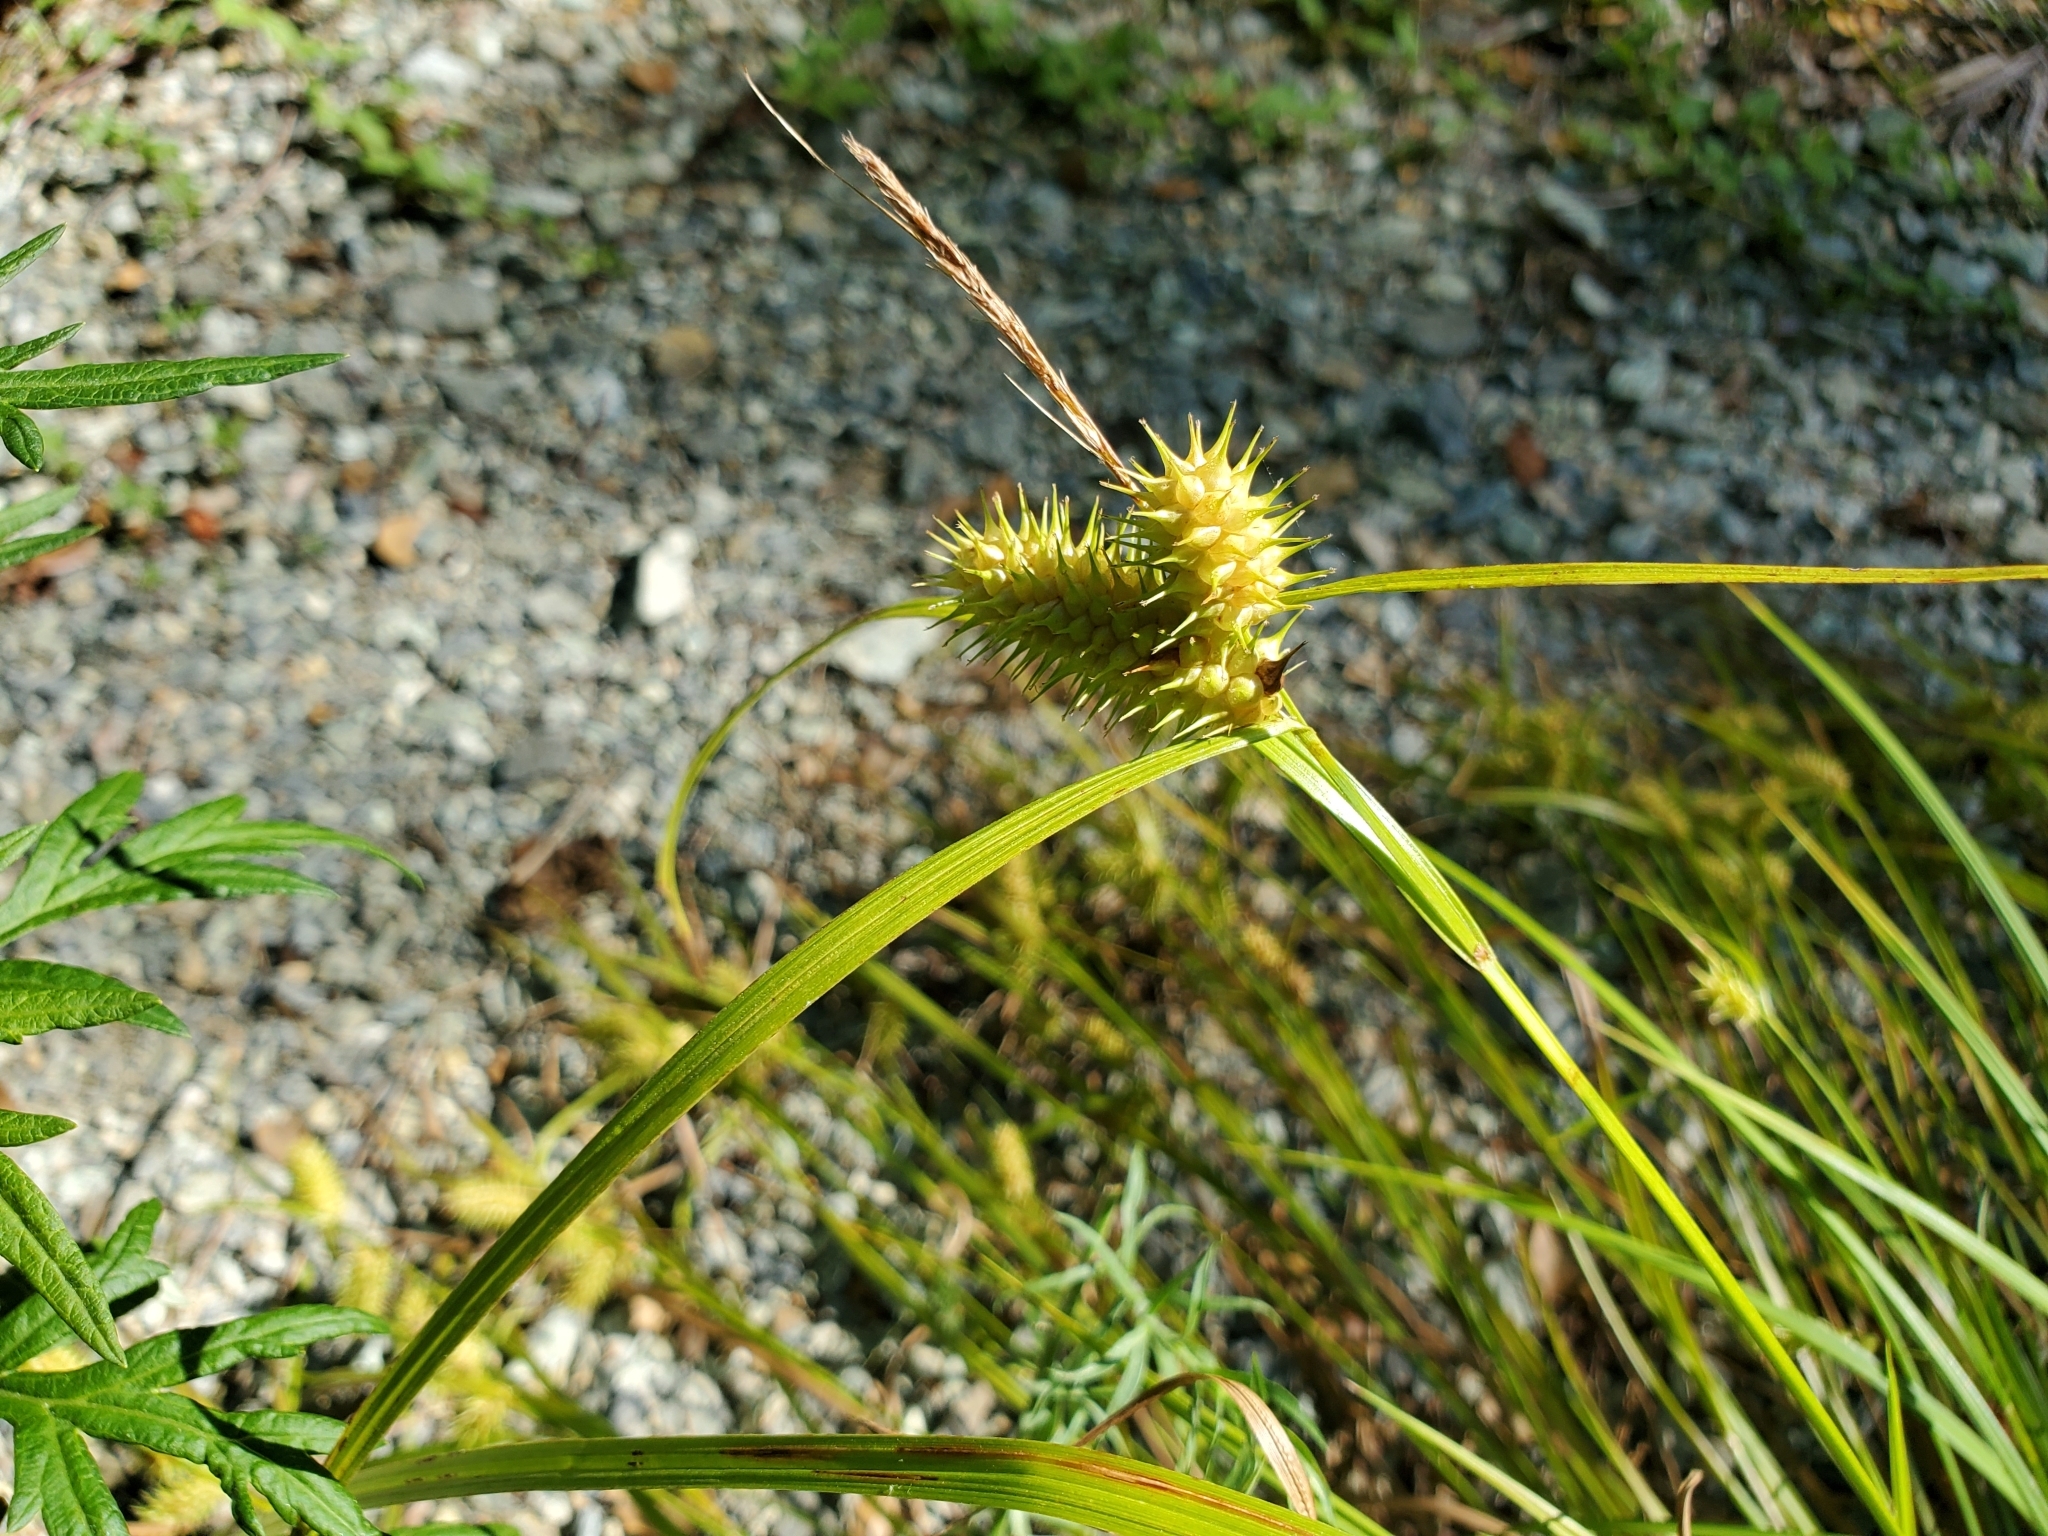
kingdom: Plantae
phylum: Tracheophyta
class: Liliopsida
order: Poales
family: Cyperaceae
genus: Carex
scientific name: Carex lurida
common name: Sallow sedge
